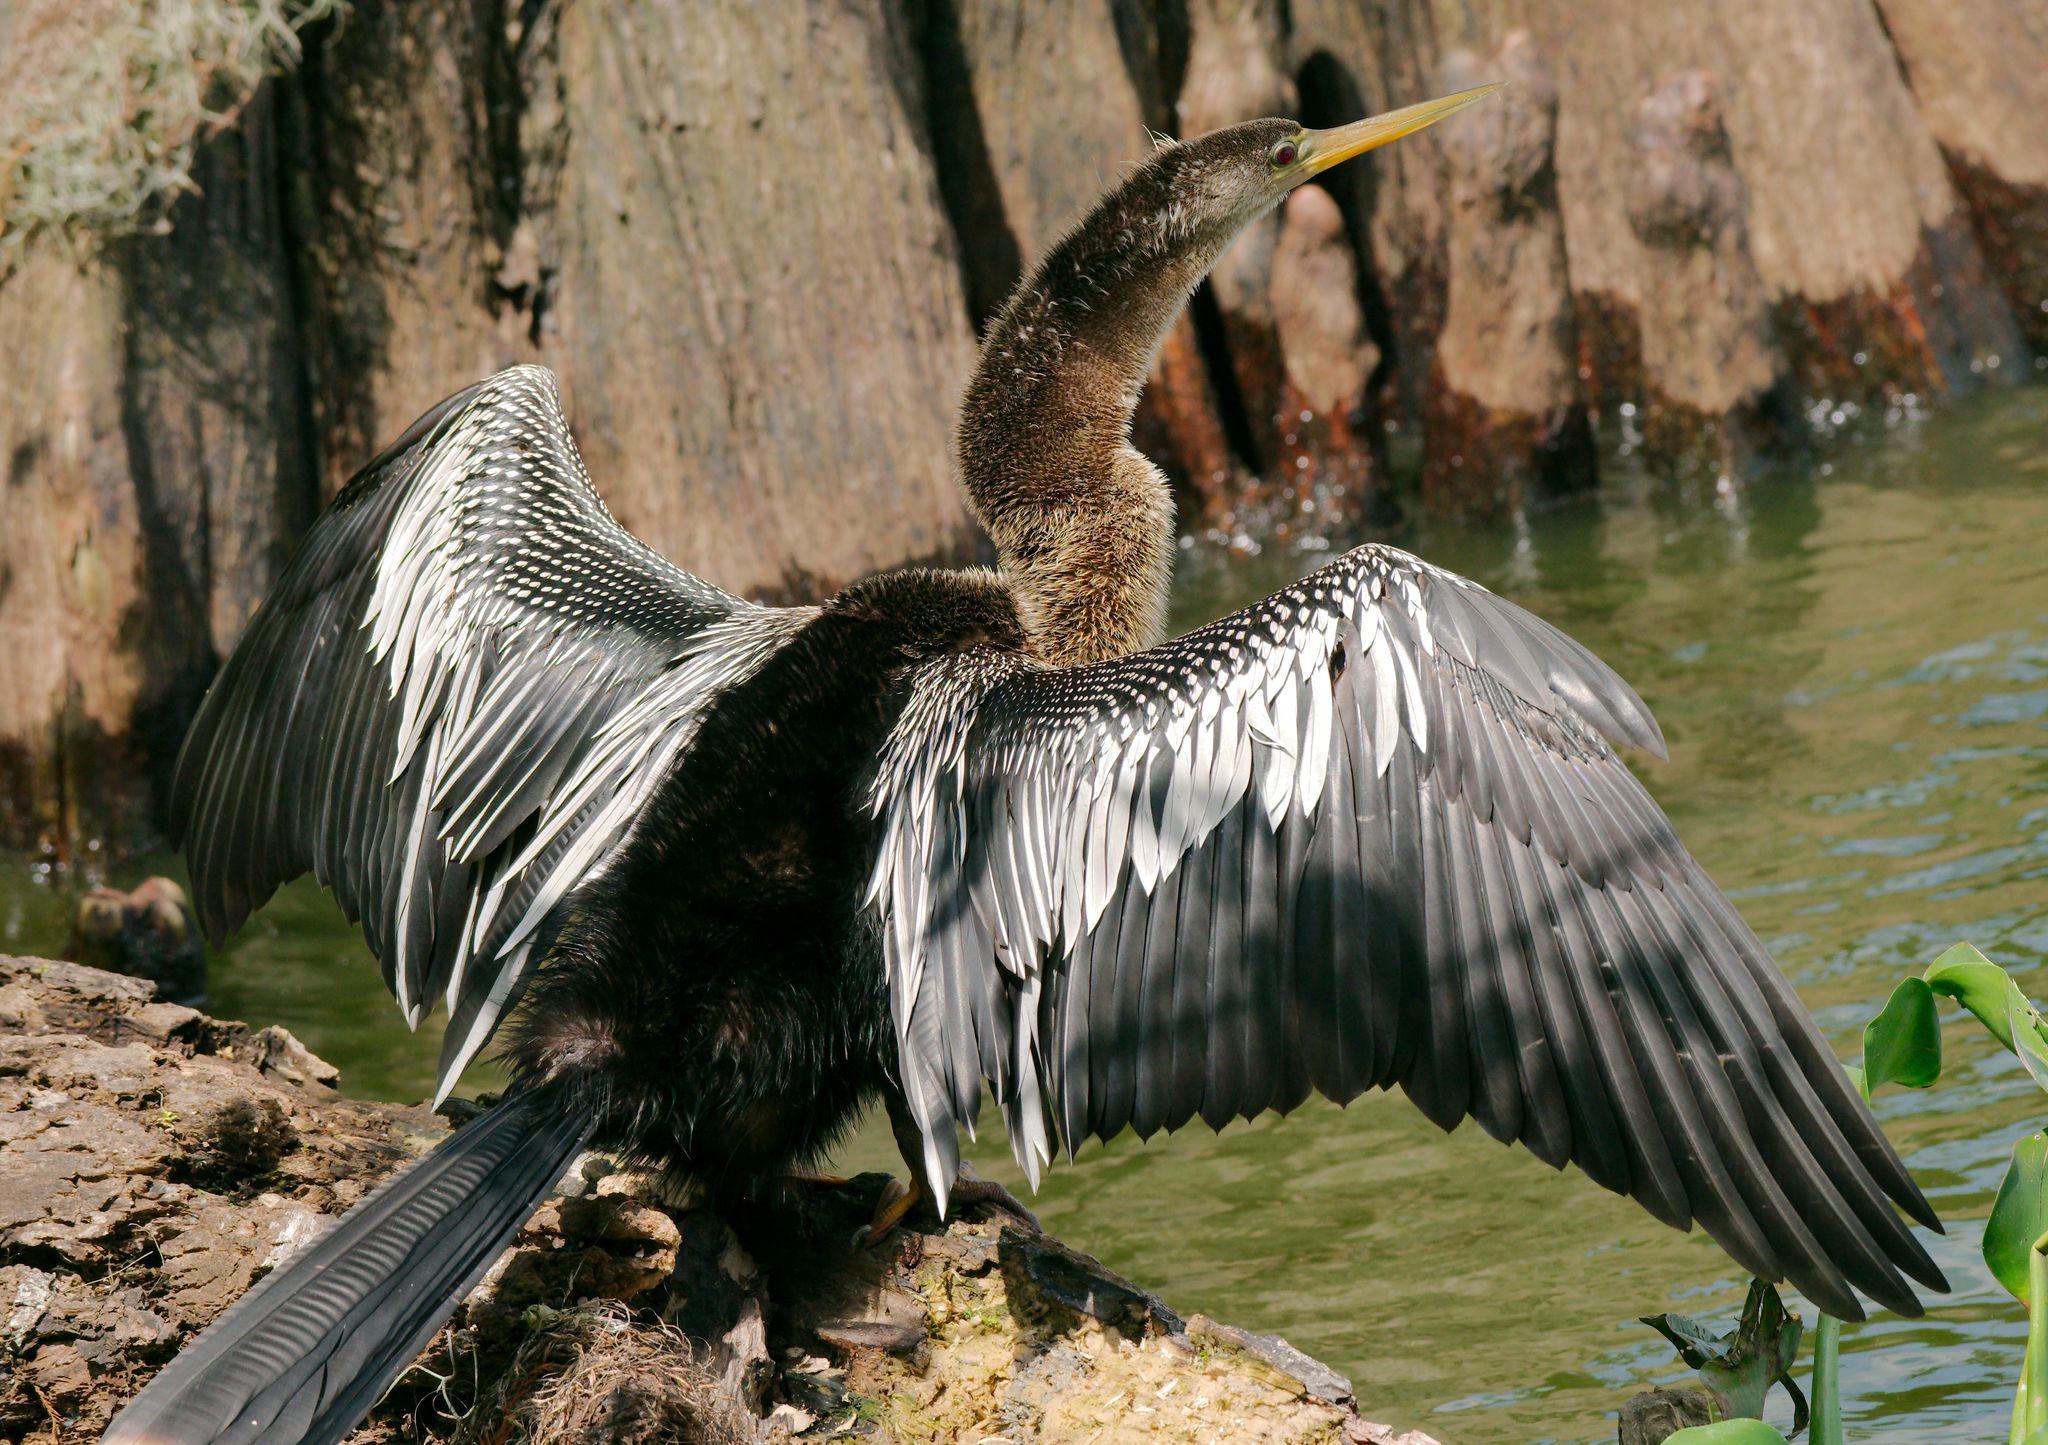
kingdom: Animalia
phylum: Chordata
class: Aves
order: Suliformes
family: Anhingidae
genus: Anhinga
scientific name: Anhinga anhinga
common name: Anhinga
